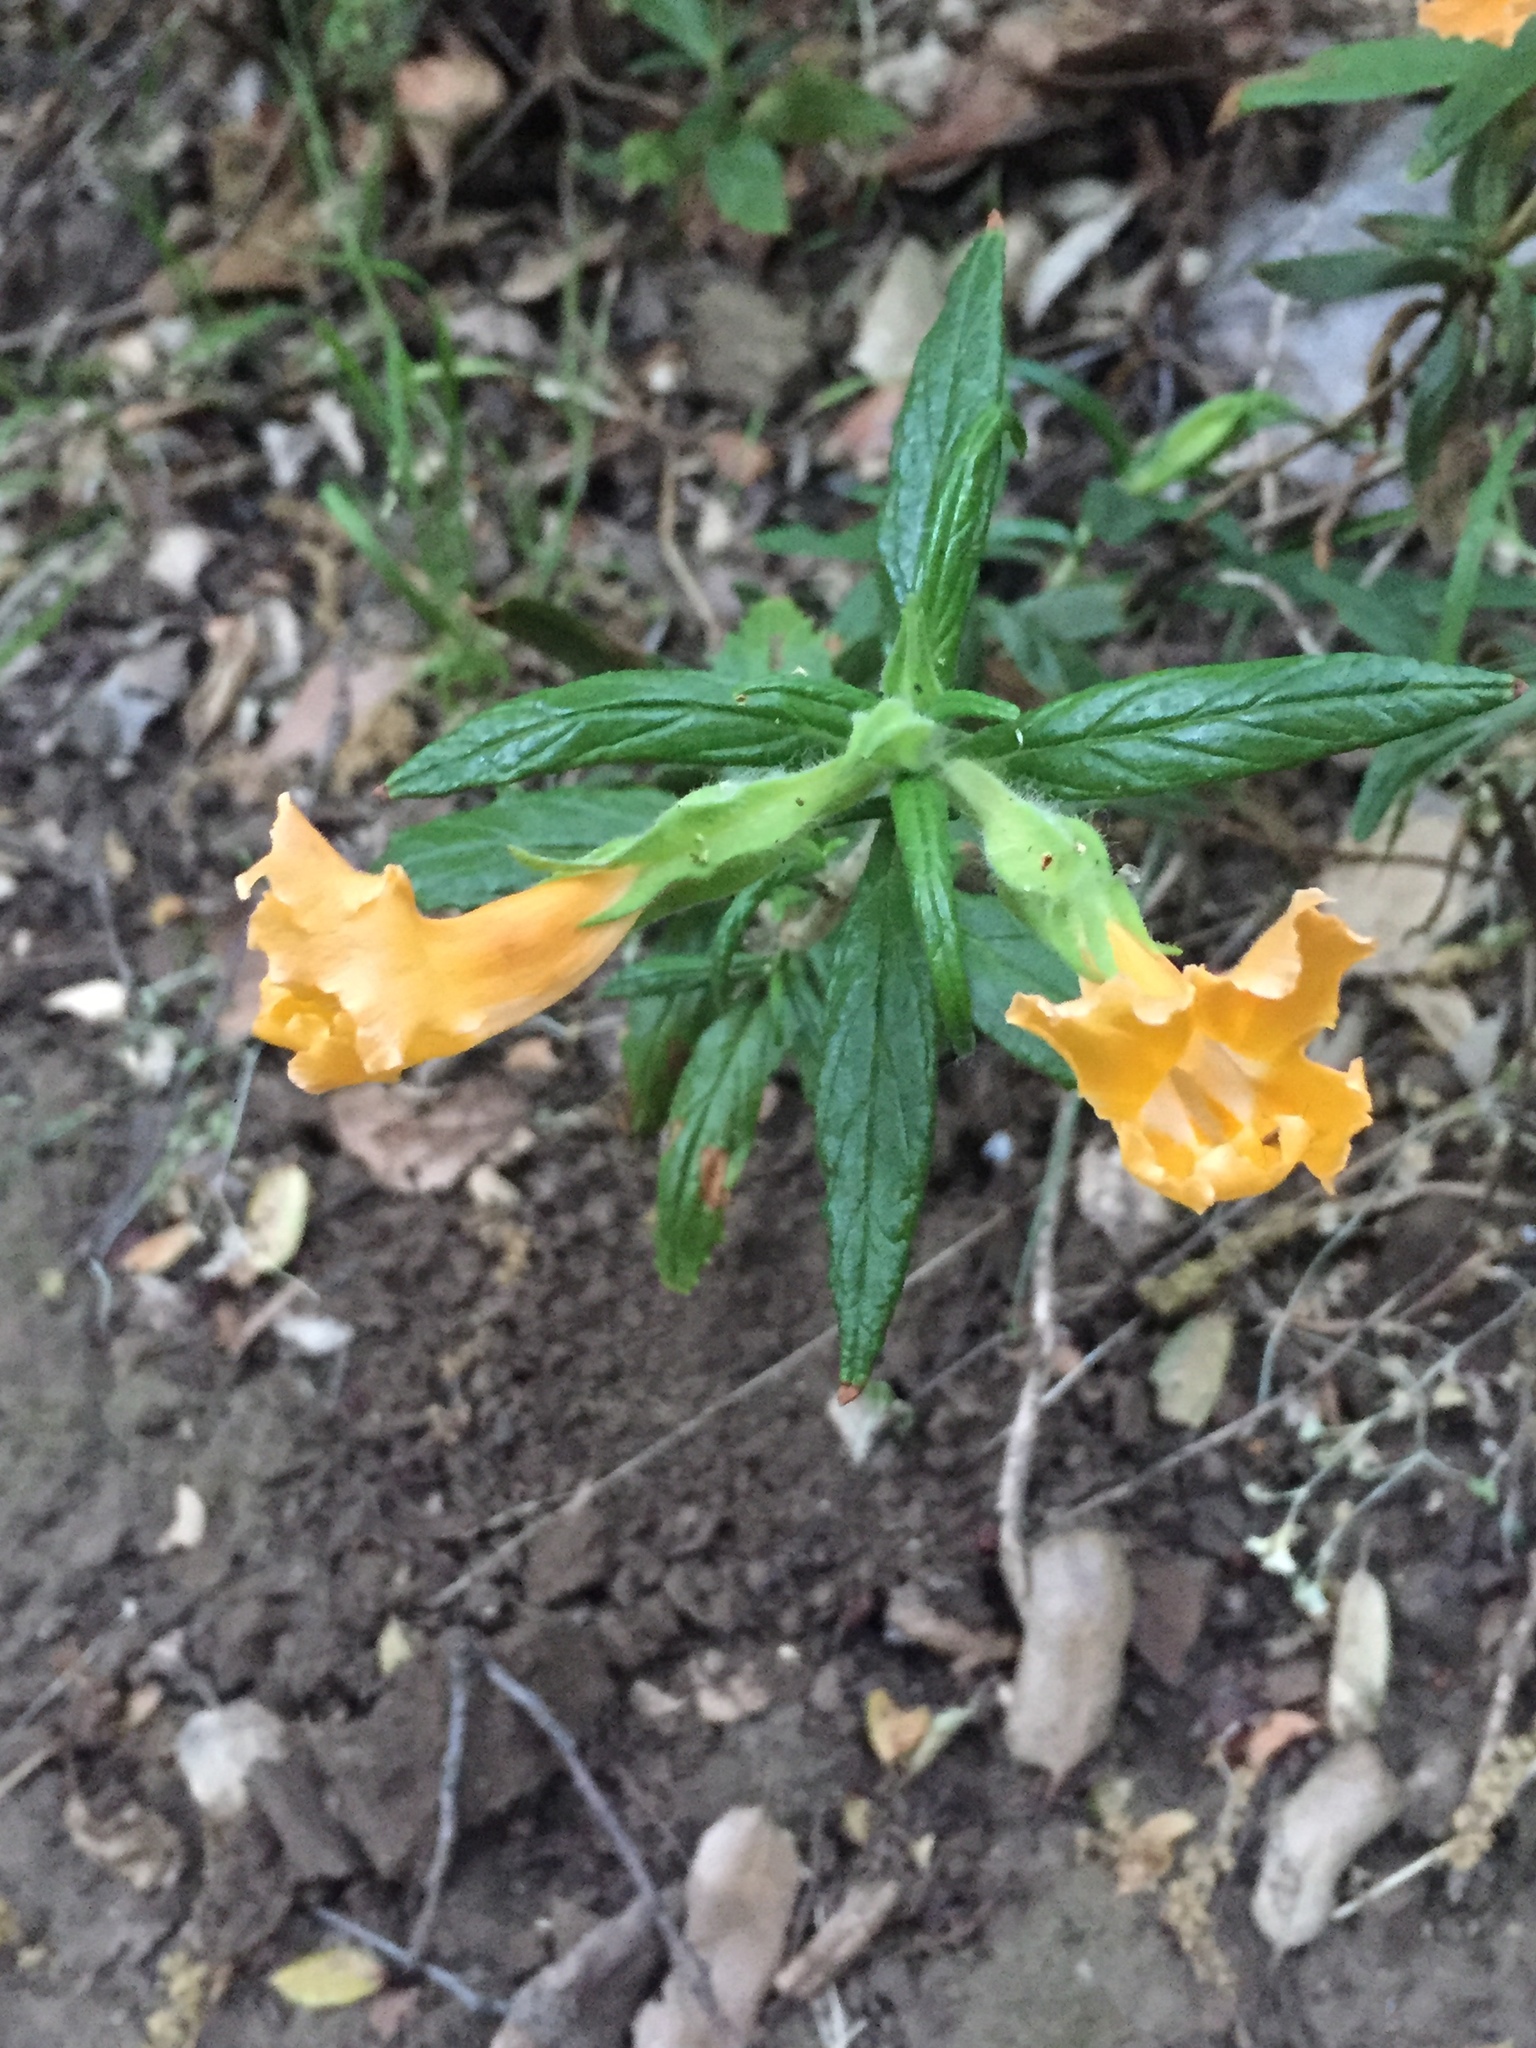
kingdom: Plantae
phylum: Tracheophyta
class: Magnoliopsida
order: Lamiales
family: Phrymaceae
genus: Diplacus
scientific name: Diplacus longiflorus
